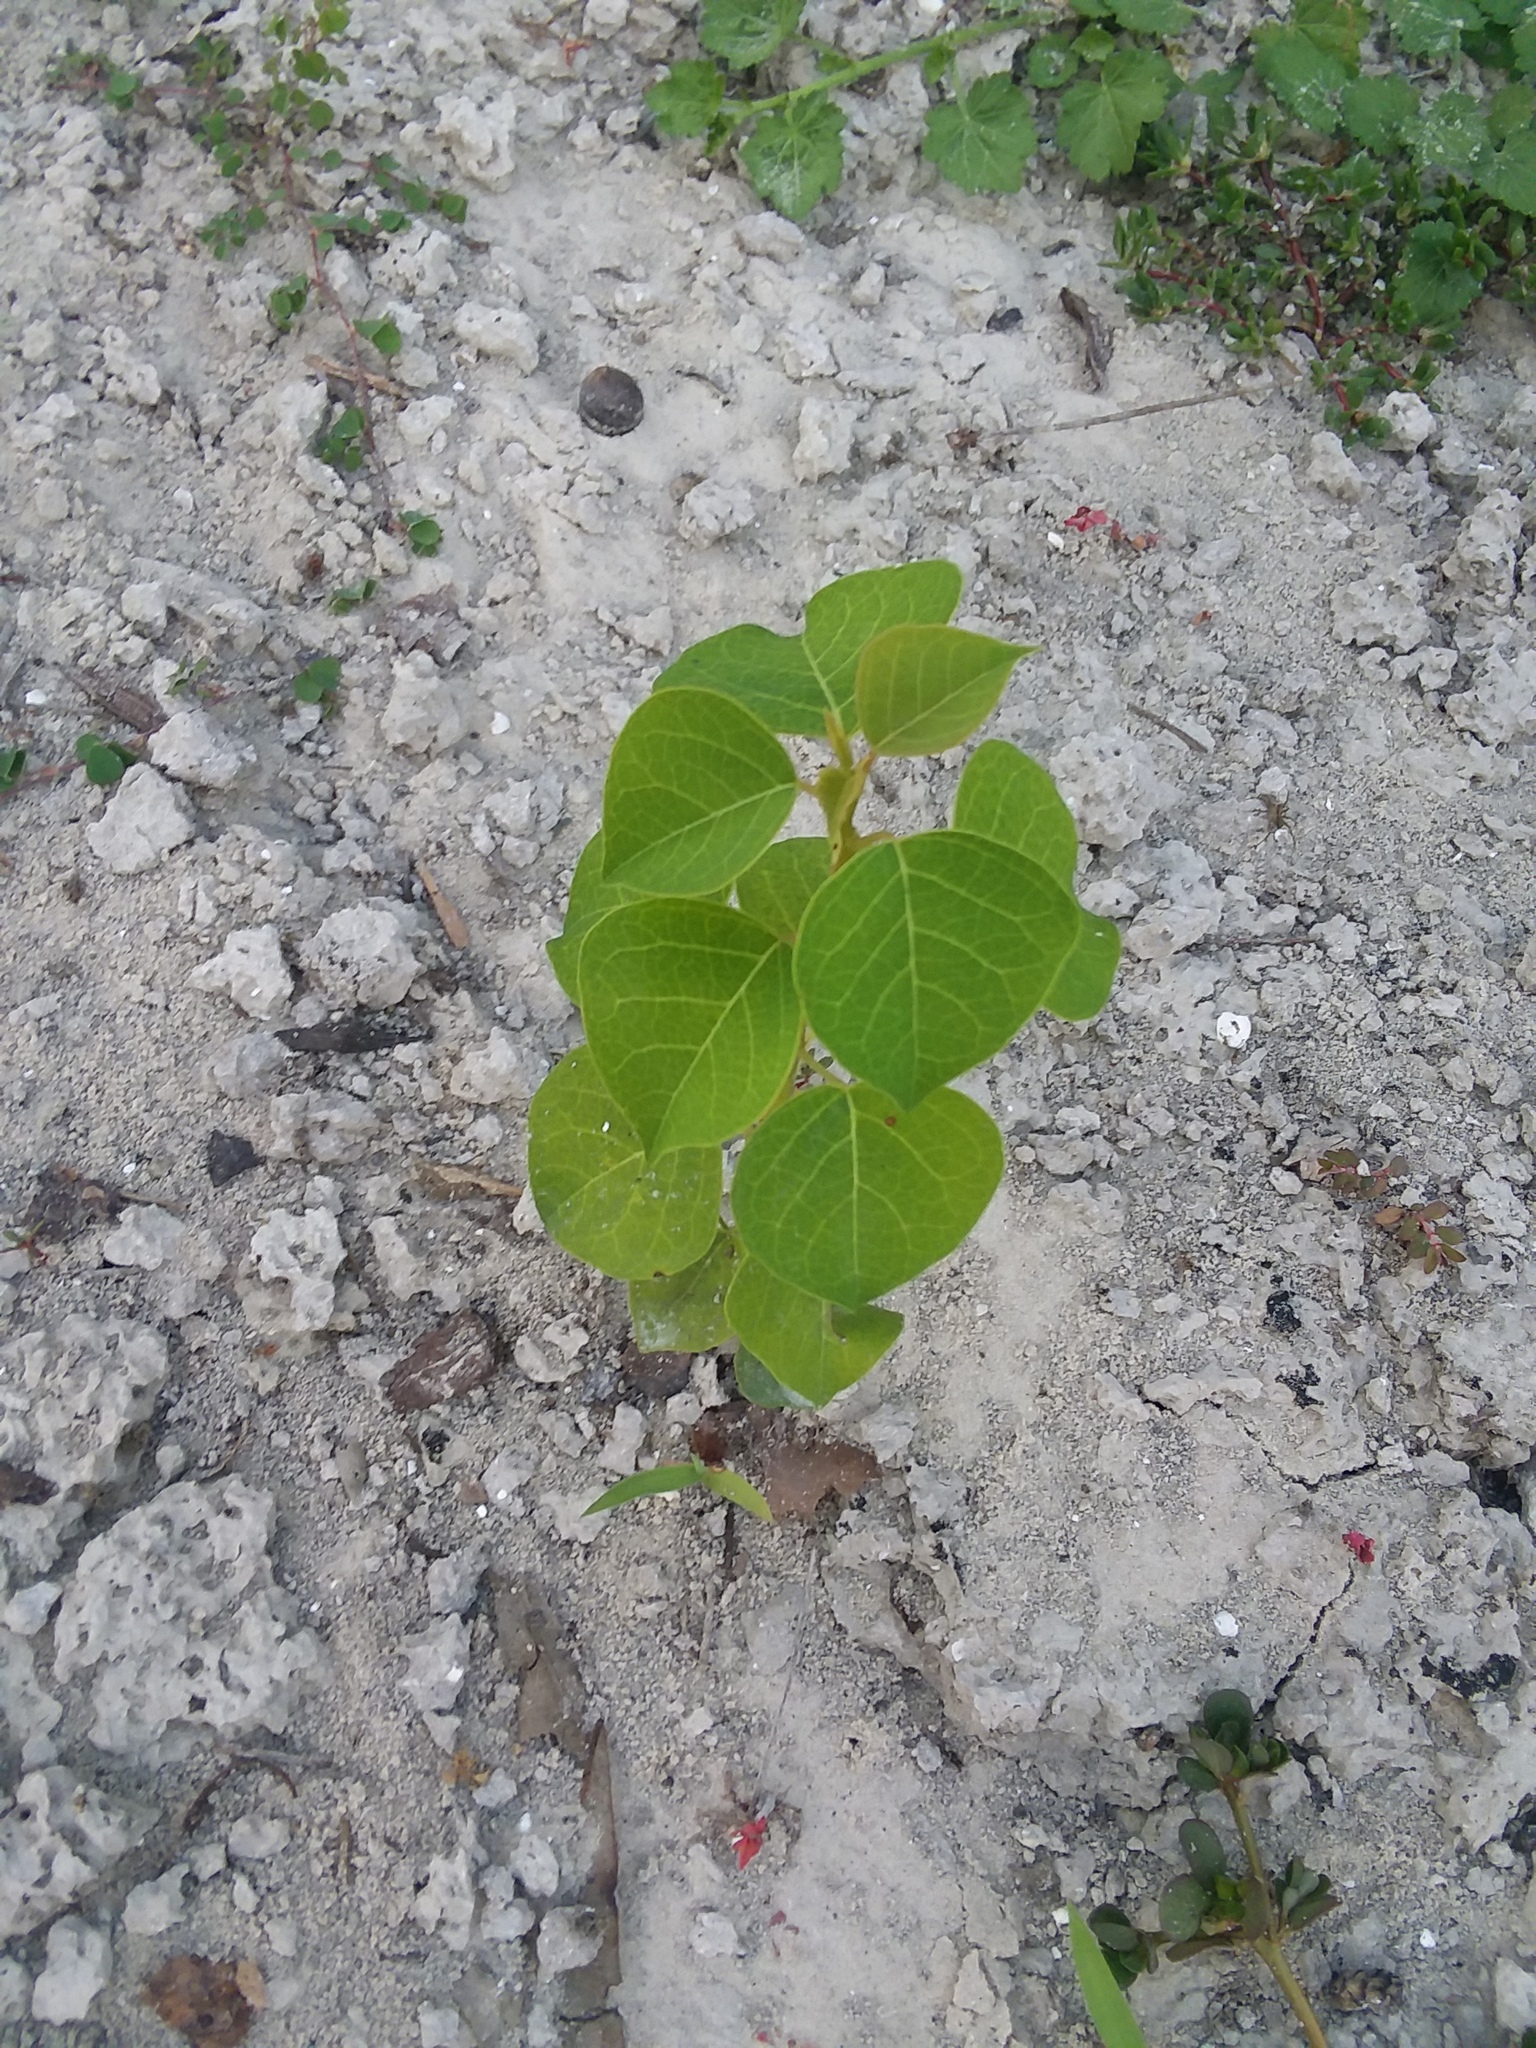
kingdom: Plantae
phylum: Tracheophyta
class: Magnoliopsida
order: Malpighiales
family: Euphorbiaceae
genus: Triadica
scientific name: Triadica sebifera
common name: Chinese tallow
